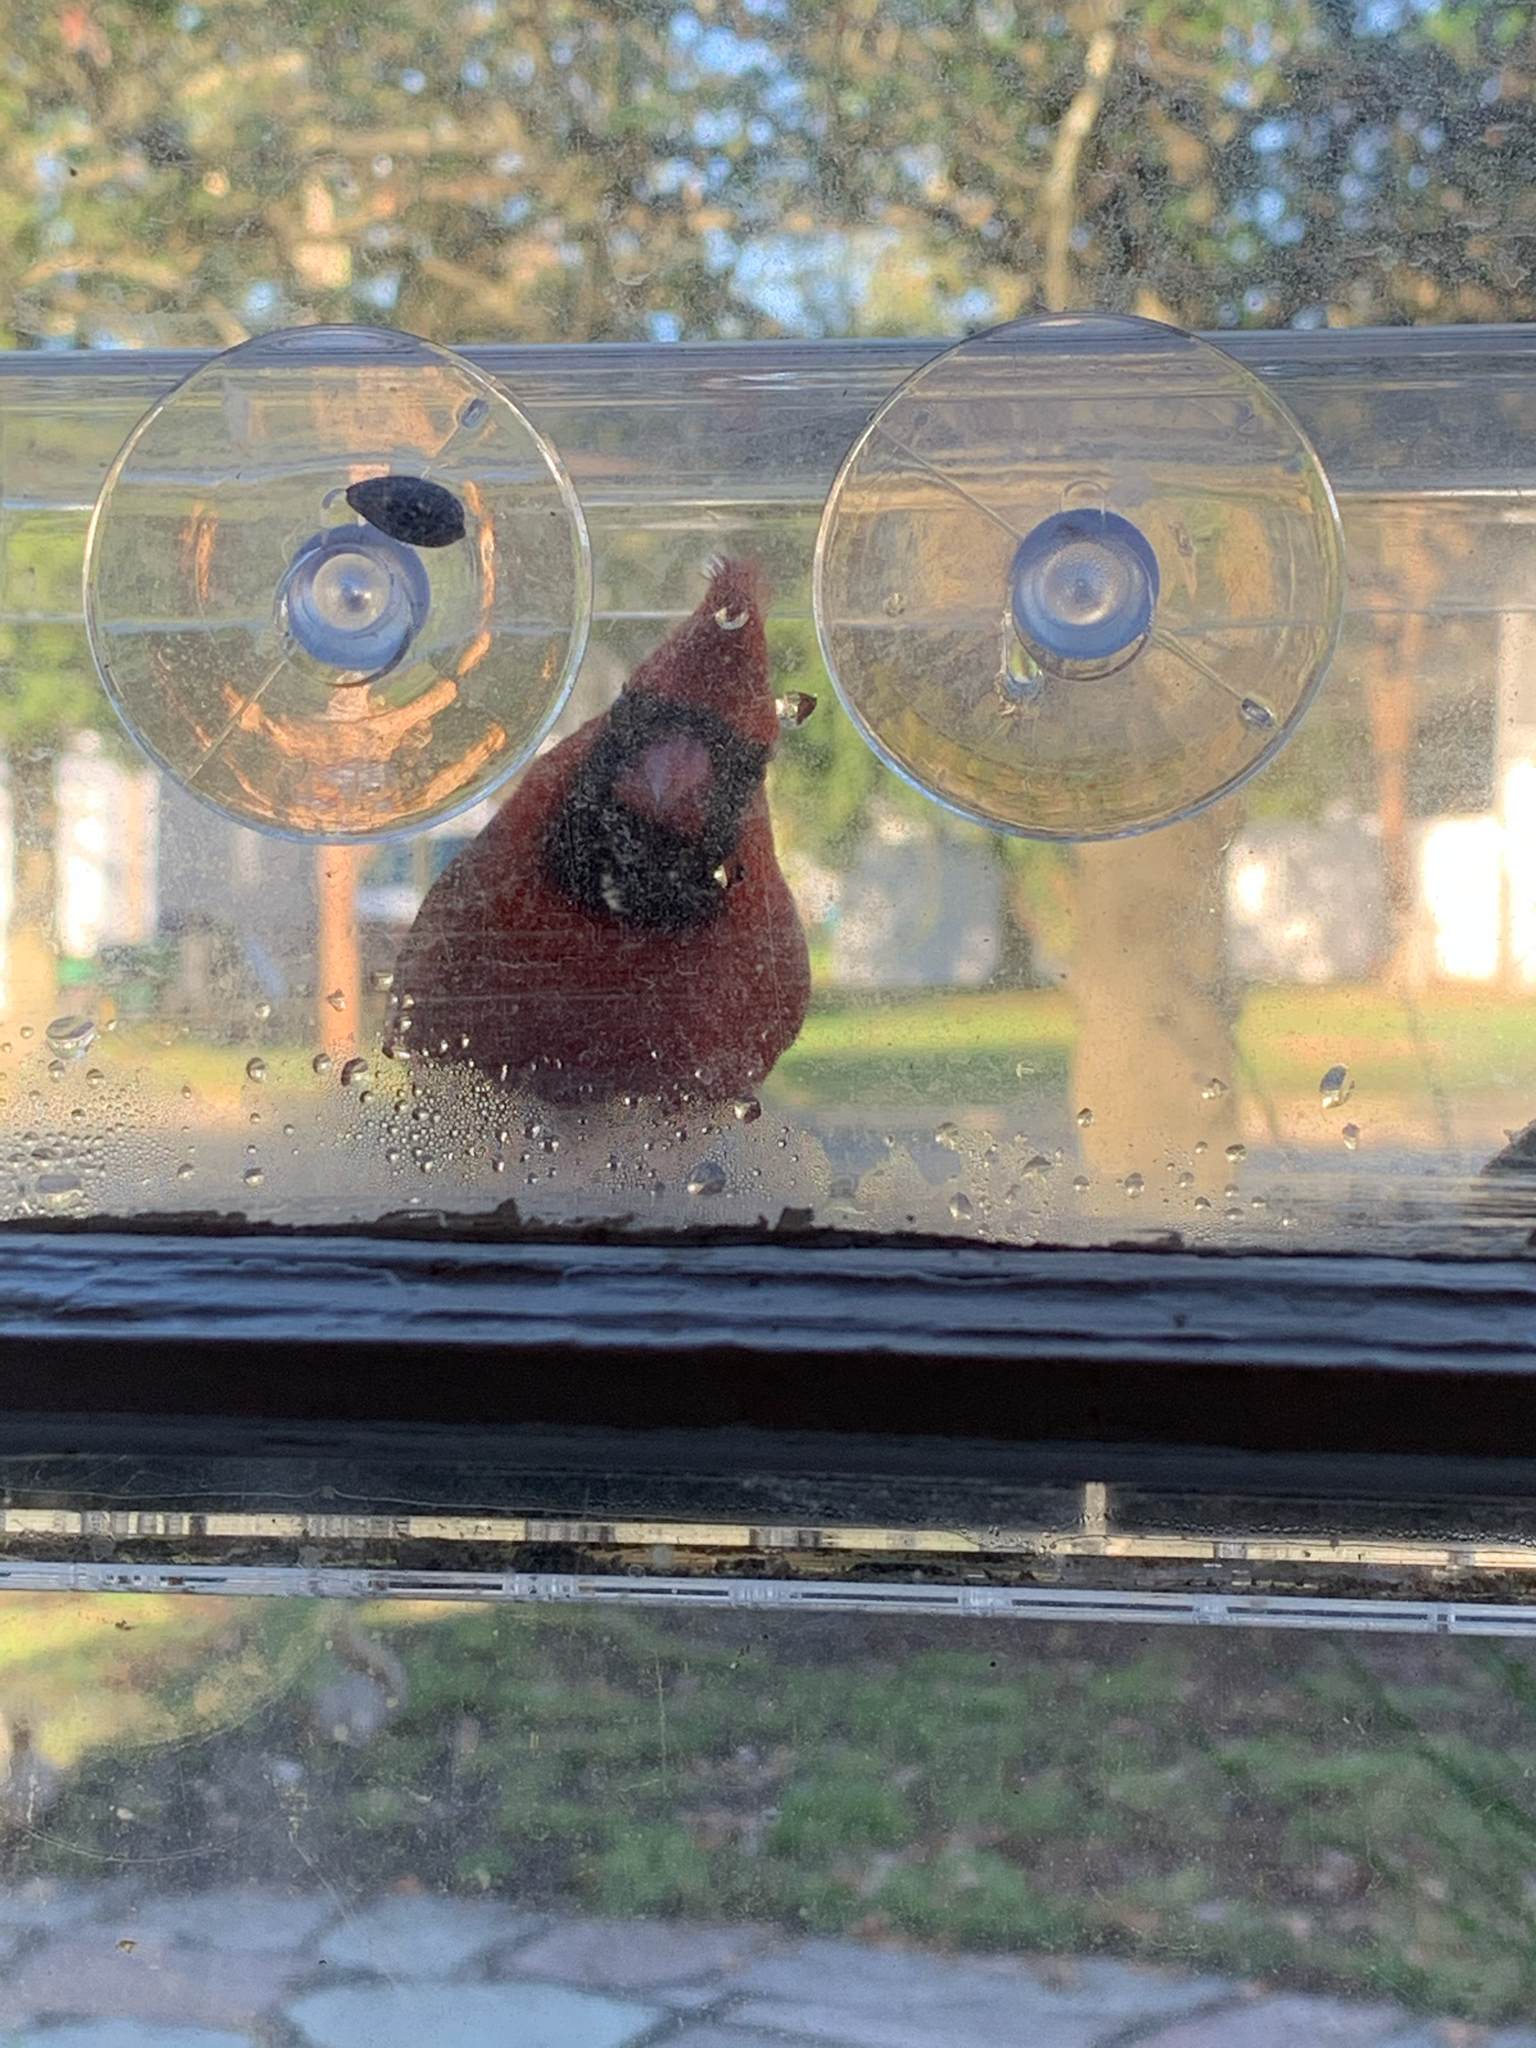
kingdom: Animalia
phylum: Chordata
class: Aves
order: Passeriformes
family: Cardinalidae
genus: Cardinalis
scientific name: Cardinalis cardinalis
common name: Northern cardinal
